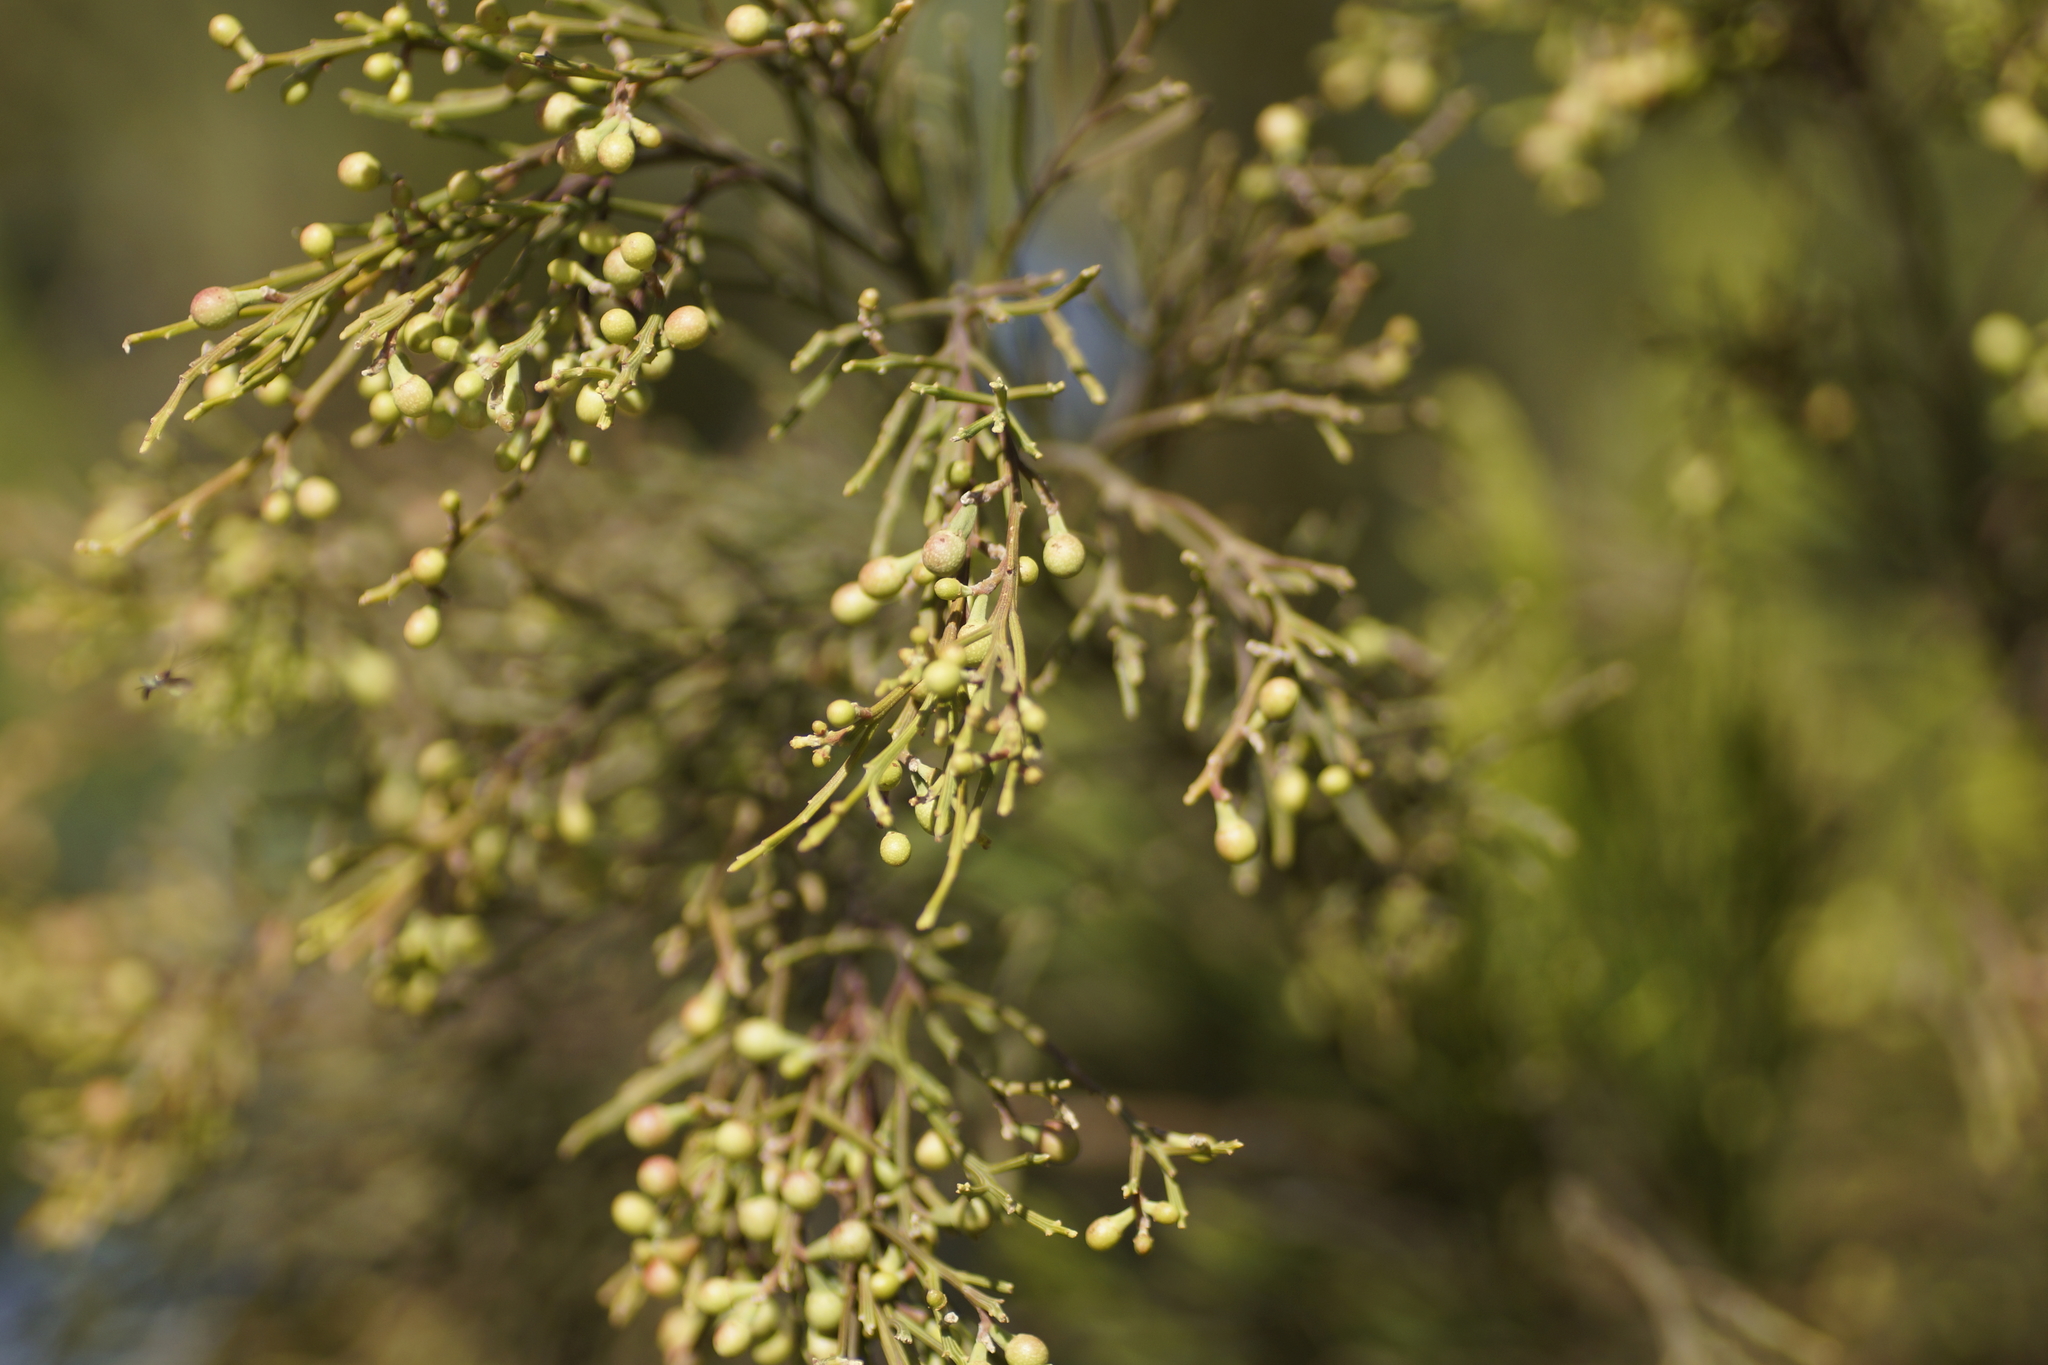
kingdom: Plantae
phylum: Tracheophyta
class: Magnoliopsida
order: Santalales
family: Santalaceae
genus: Exocarpos
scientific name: Exocarpos cupressiformis
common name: Cherry ballart
